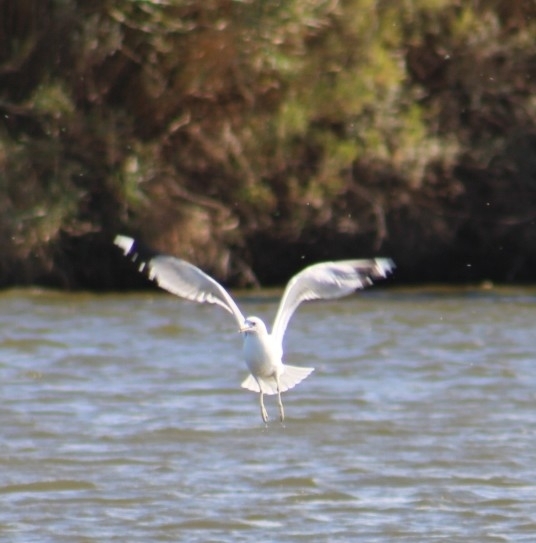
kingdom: Animalia
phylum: Chordata
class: Aves
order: Charadriiformes
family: Laridae
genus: Larus
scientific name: Larus delawarensis
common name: Ring-billed gull
